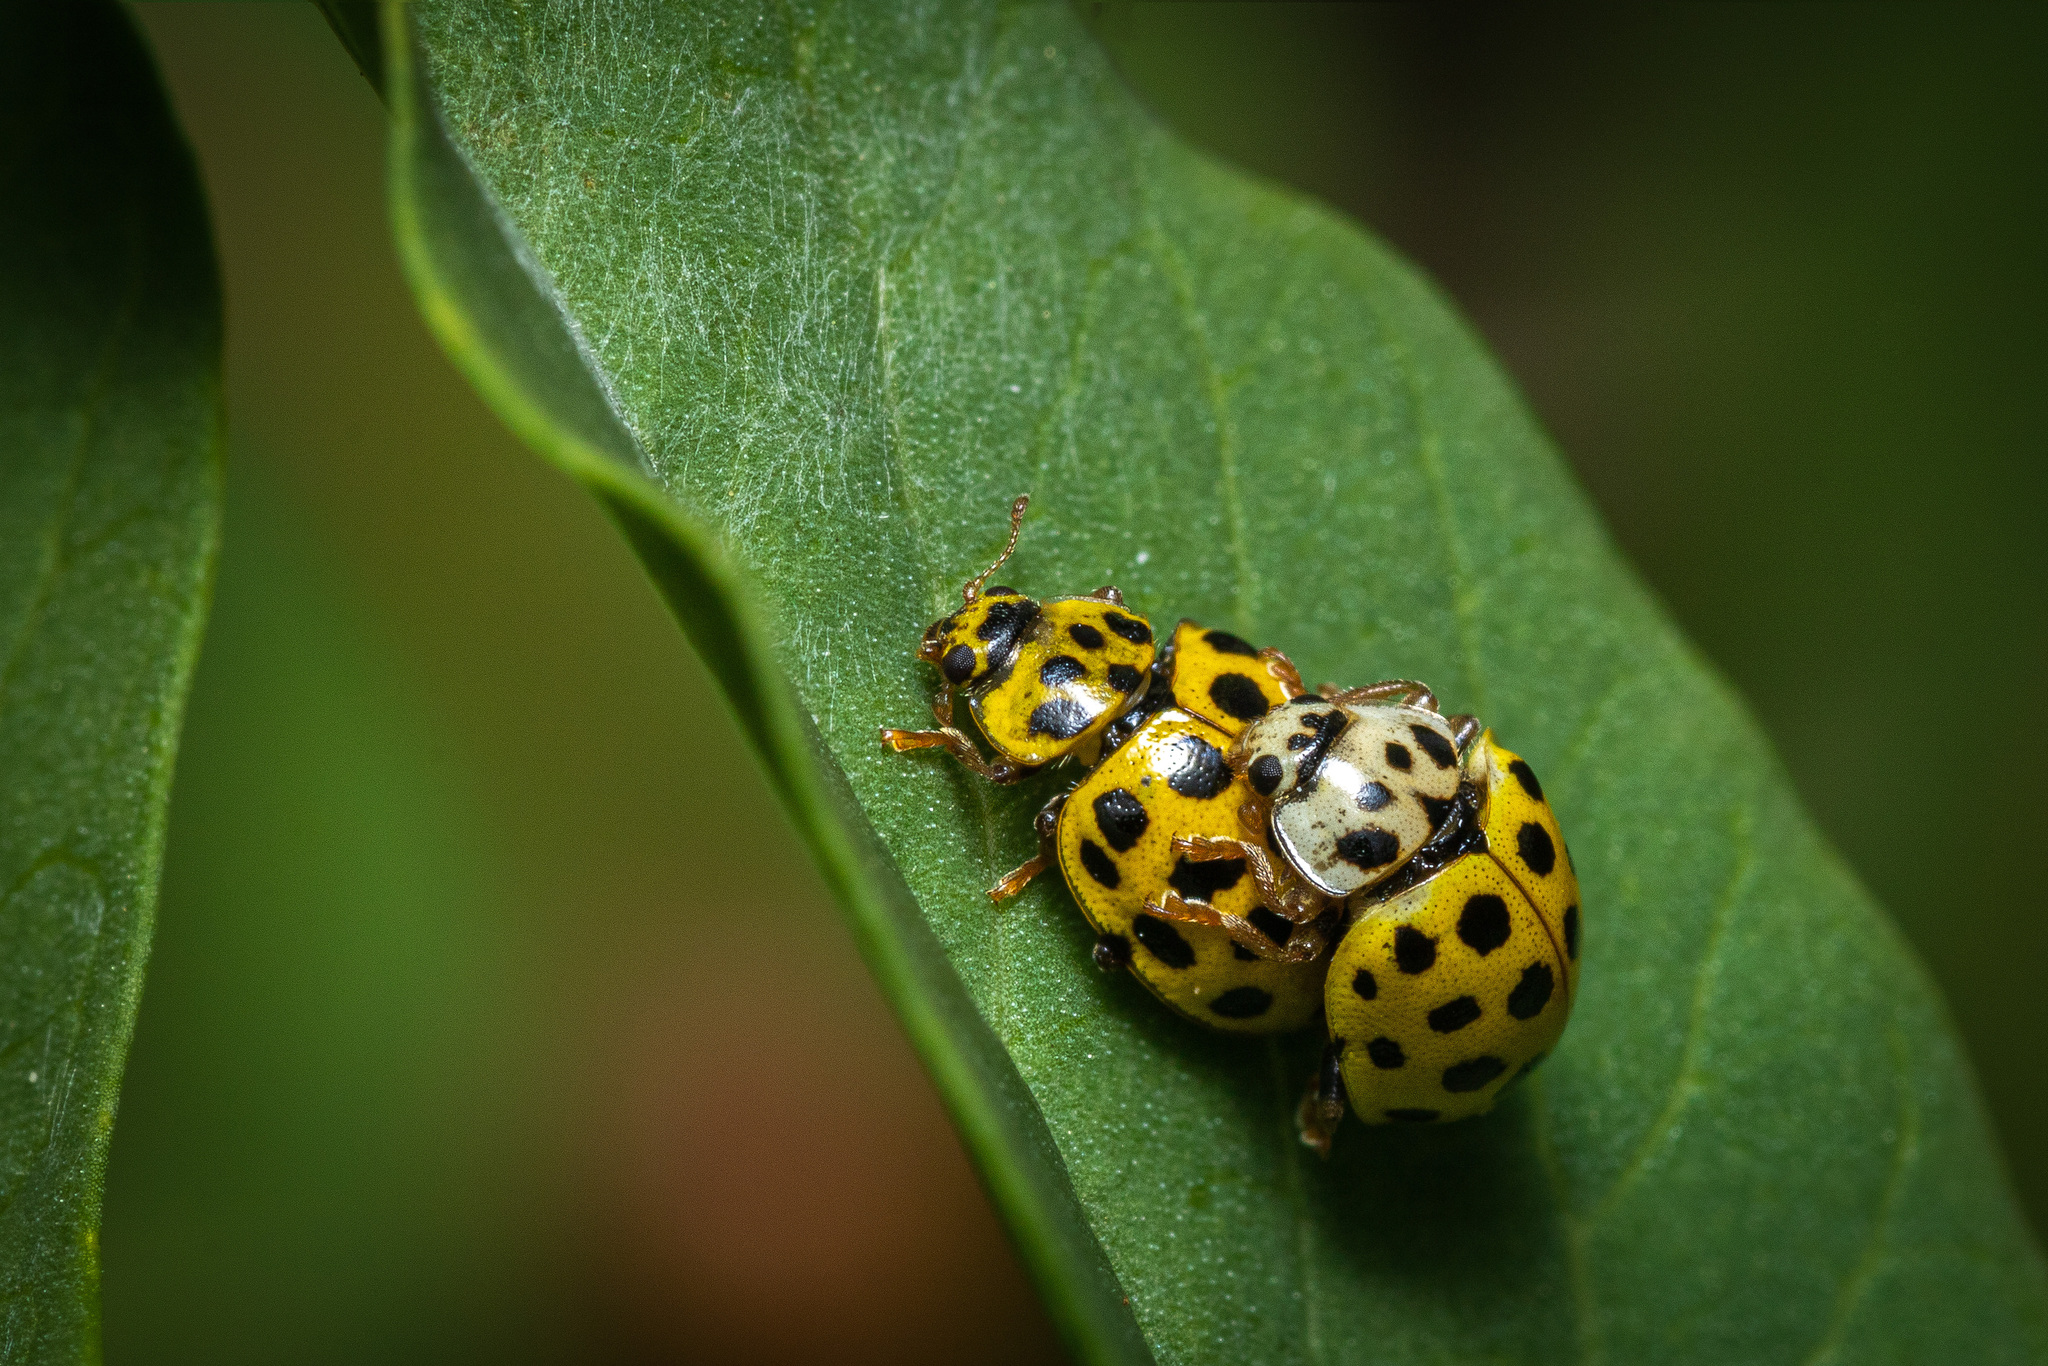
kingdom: Animalia
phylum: Arthropoda
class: Insecta
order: Coleoptera
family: Coccinellidae
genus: Psyllobora
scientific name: Psyllobora vigintiduopunctata
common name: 22-spot ladybird
